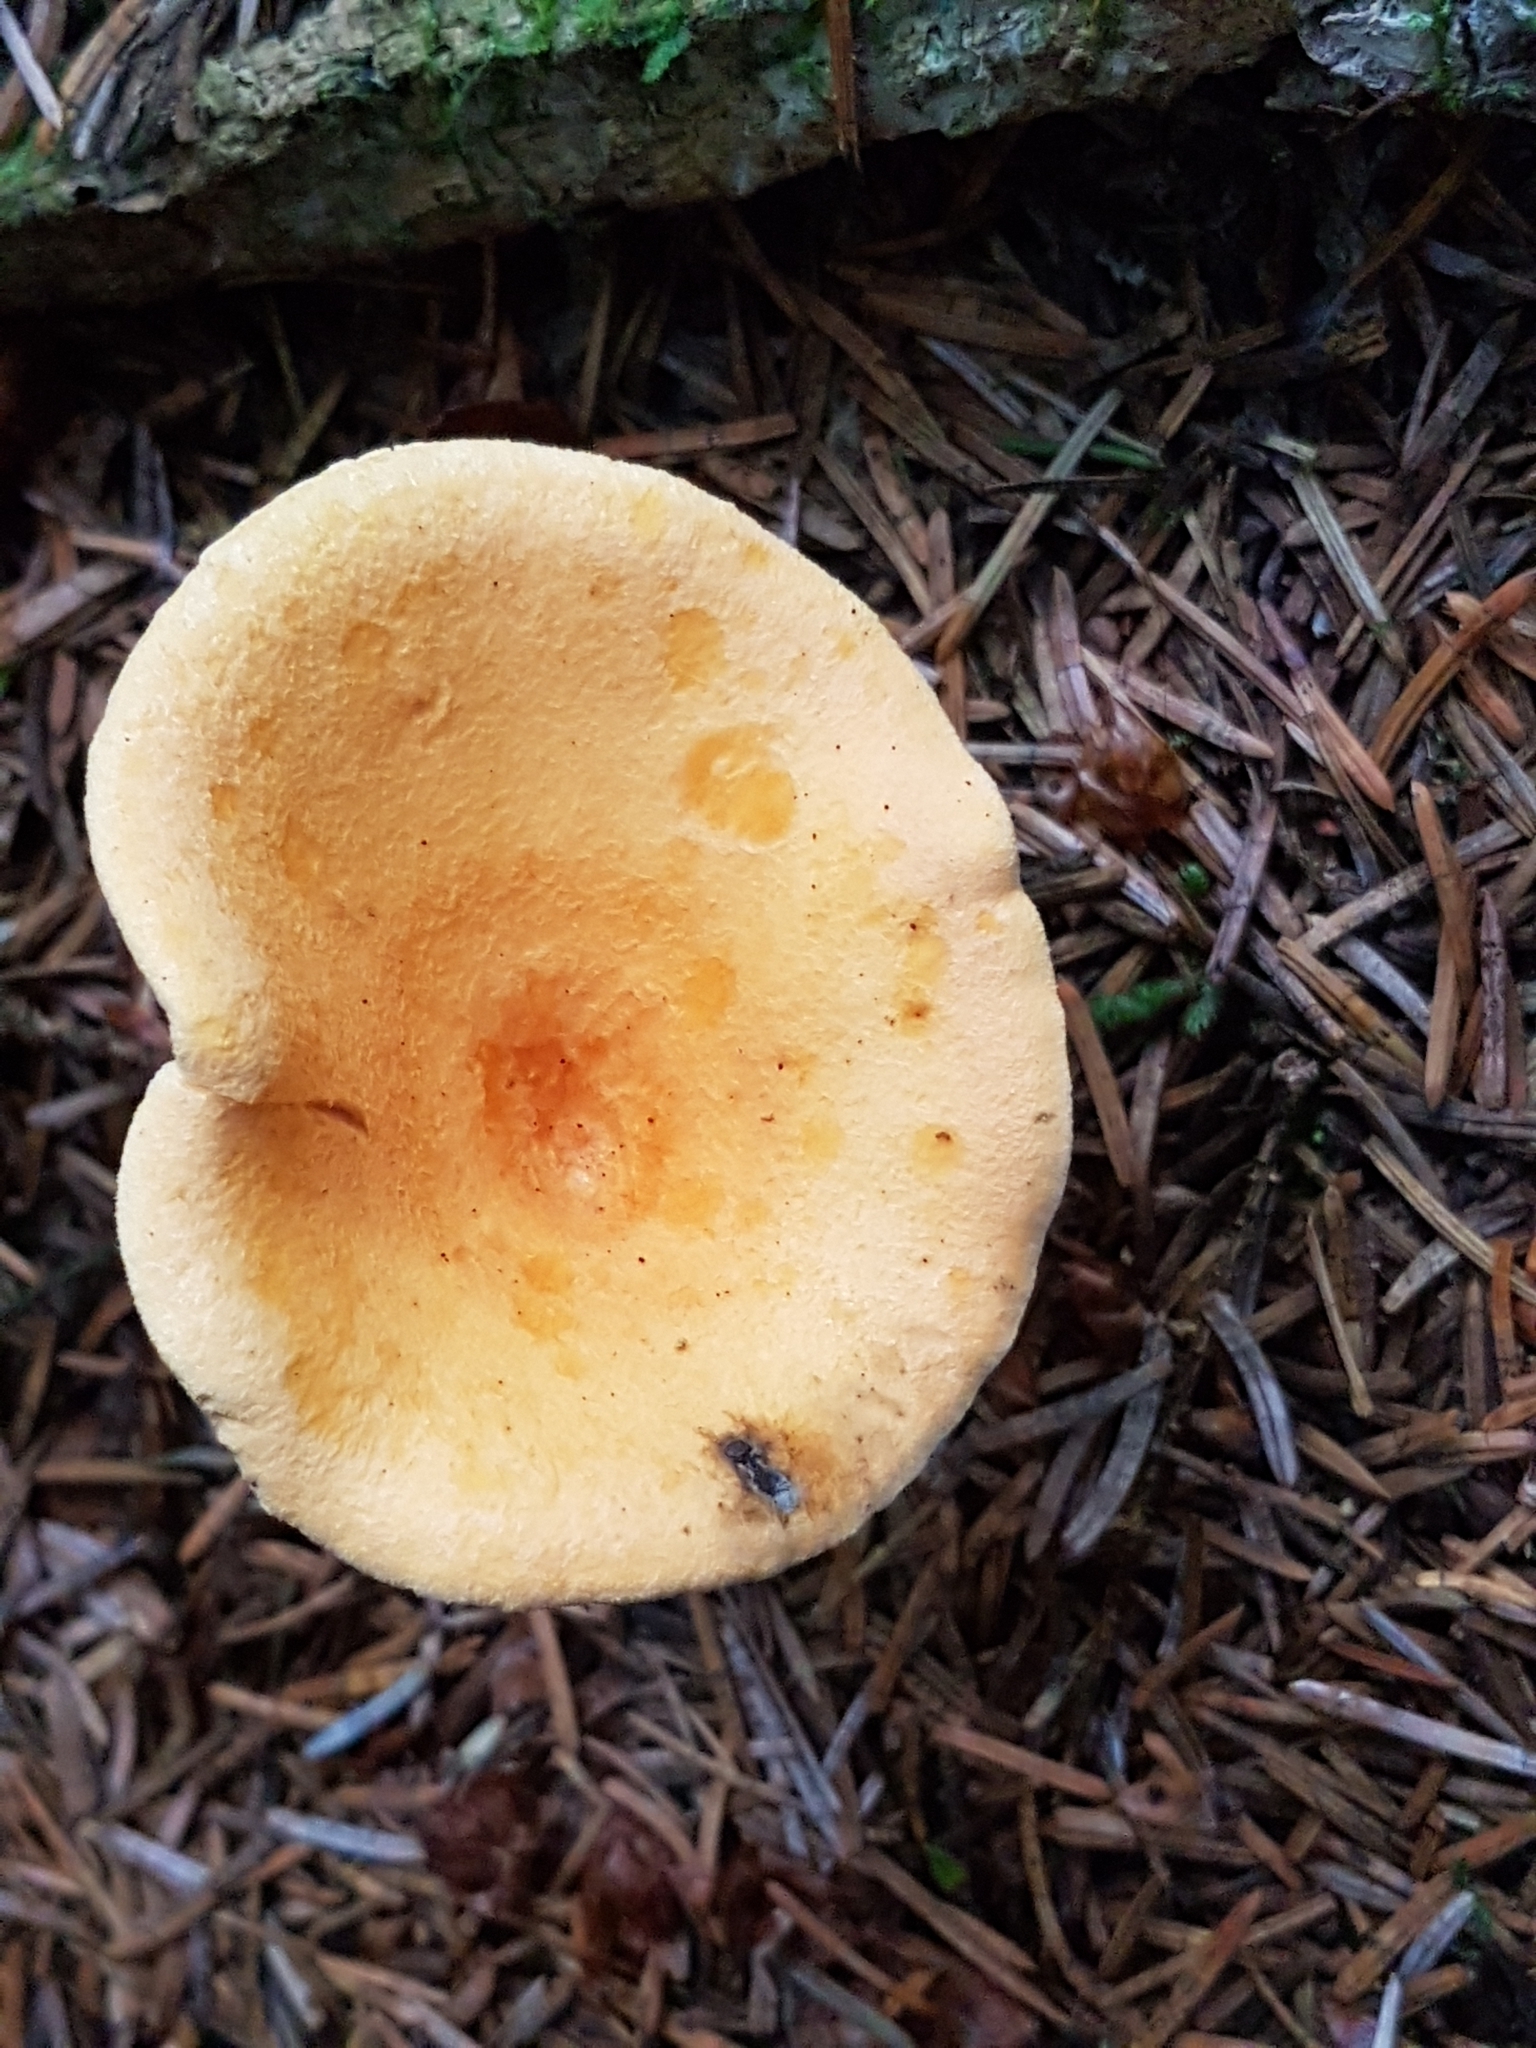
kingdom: Fungi
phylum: Basidiomycota
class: Agaricomycetes
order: Boletales
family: Hygrophoropsidaceae
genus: Hygrophoropsis
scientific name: Hygrophoropsis aurantiaca
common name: False chanterelle
